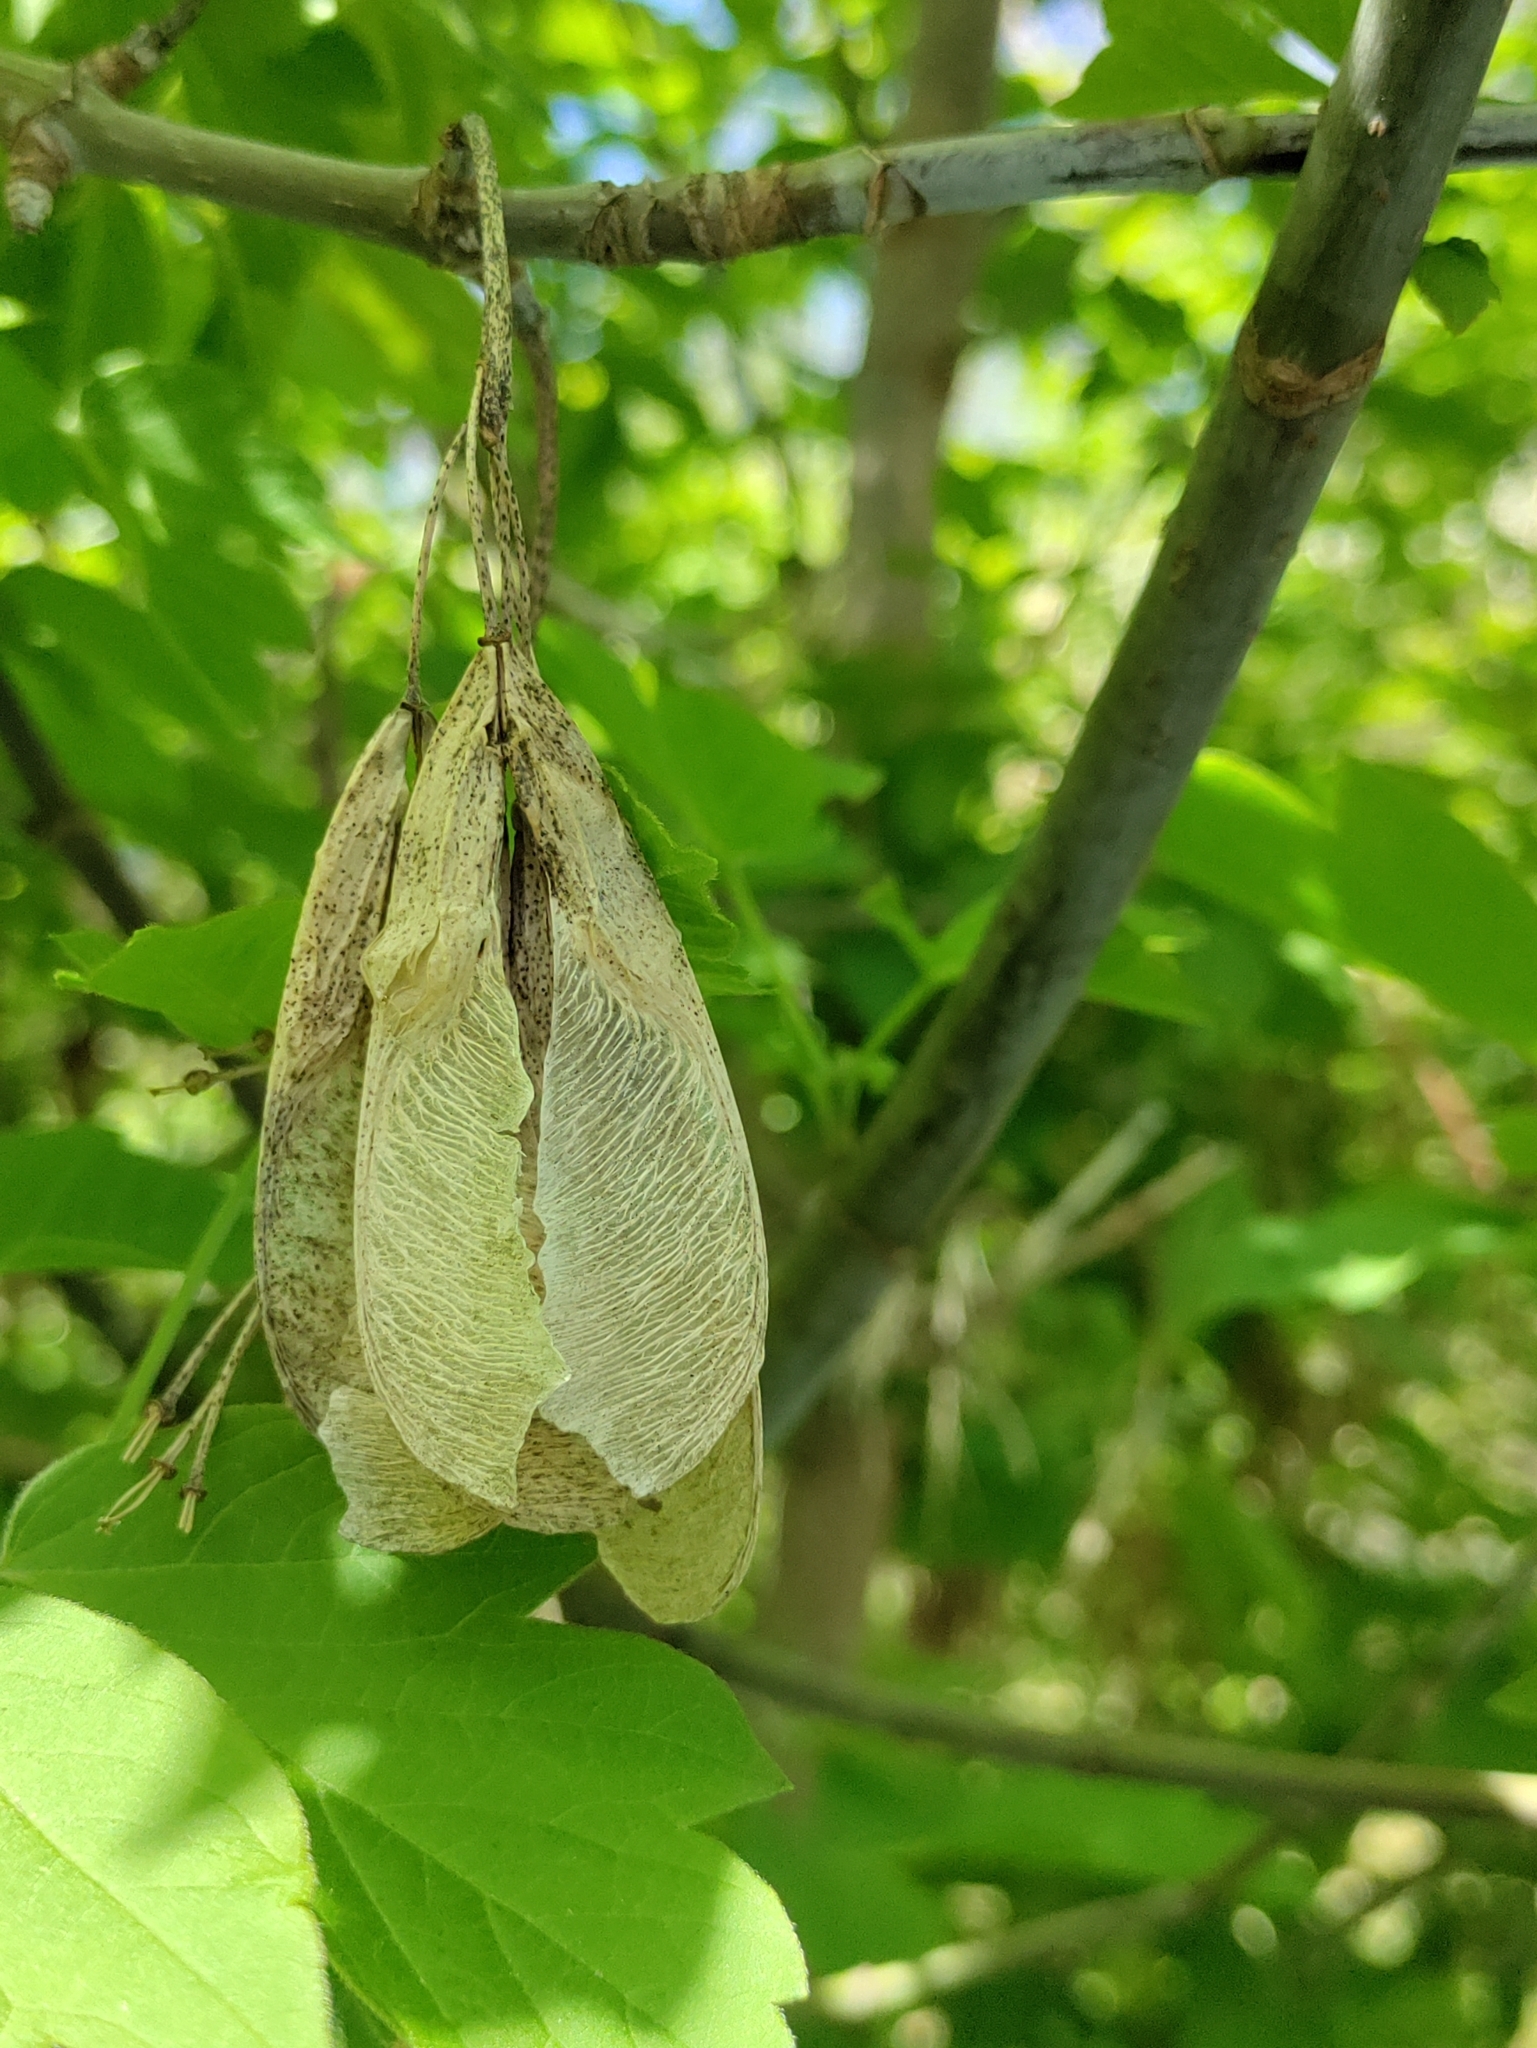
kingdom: Plantae
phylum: Tracheophyta
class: Magnoliopsida
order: Sapindales
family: Sapindaceae
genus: Acer
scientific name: Acer negundo
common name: Ashleaf maple
